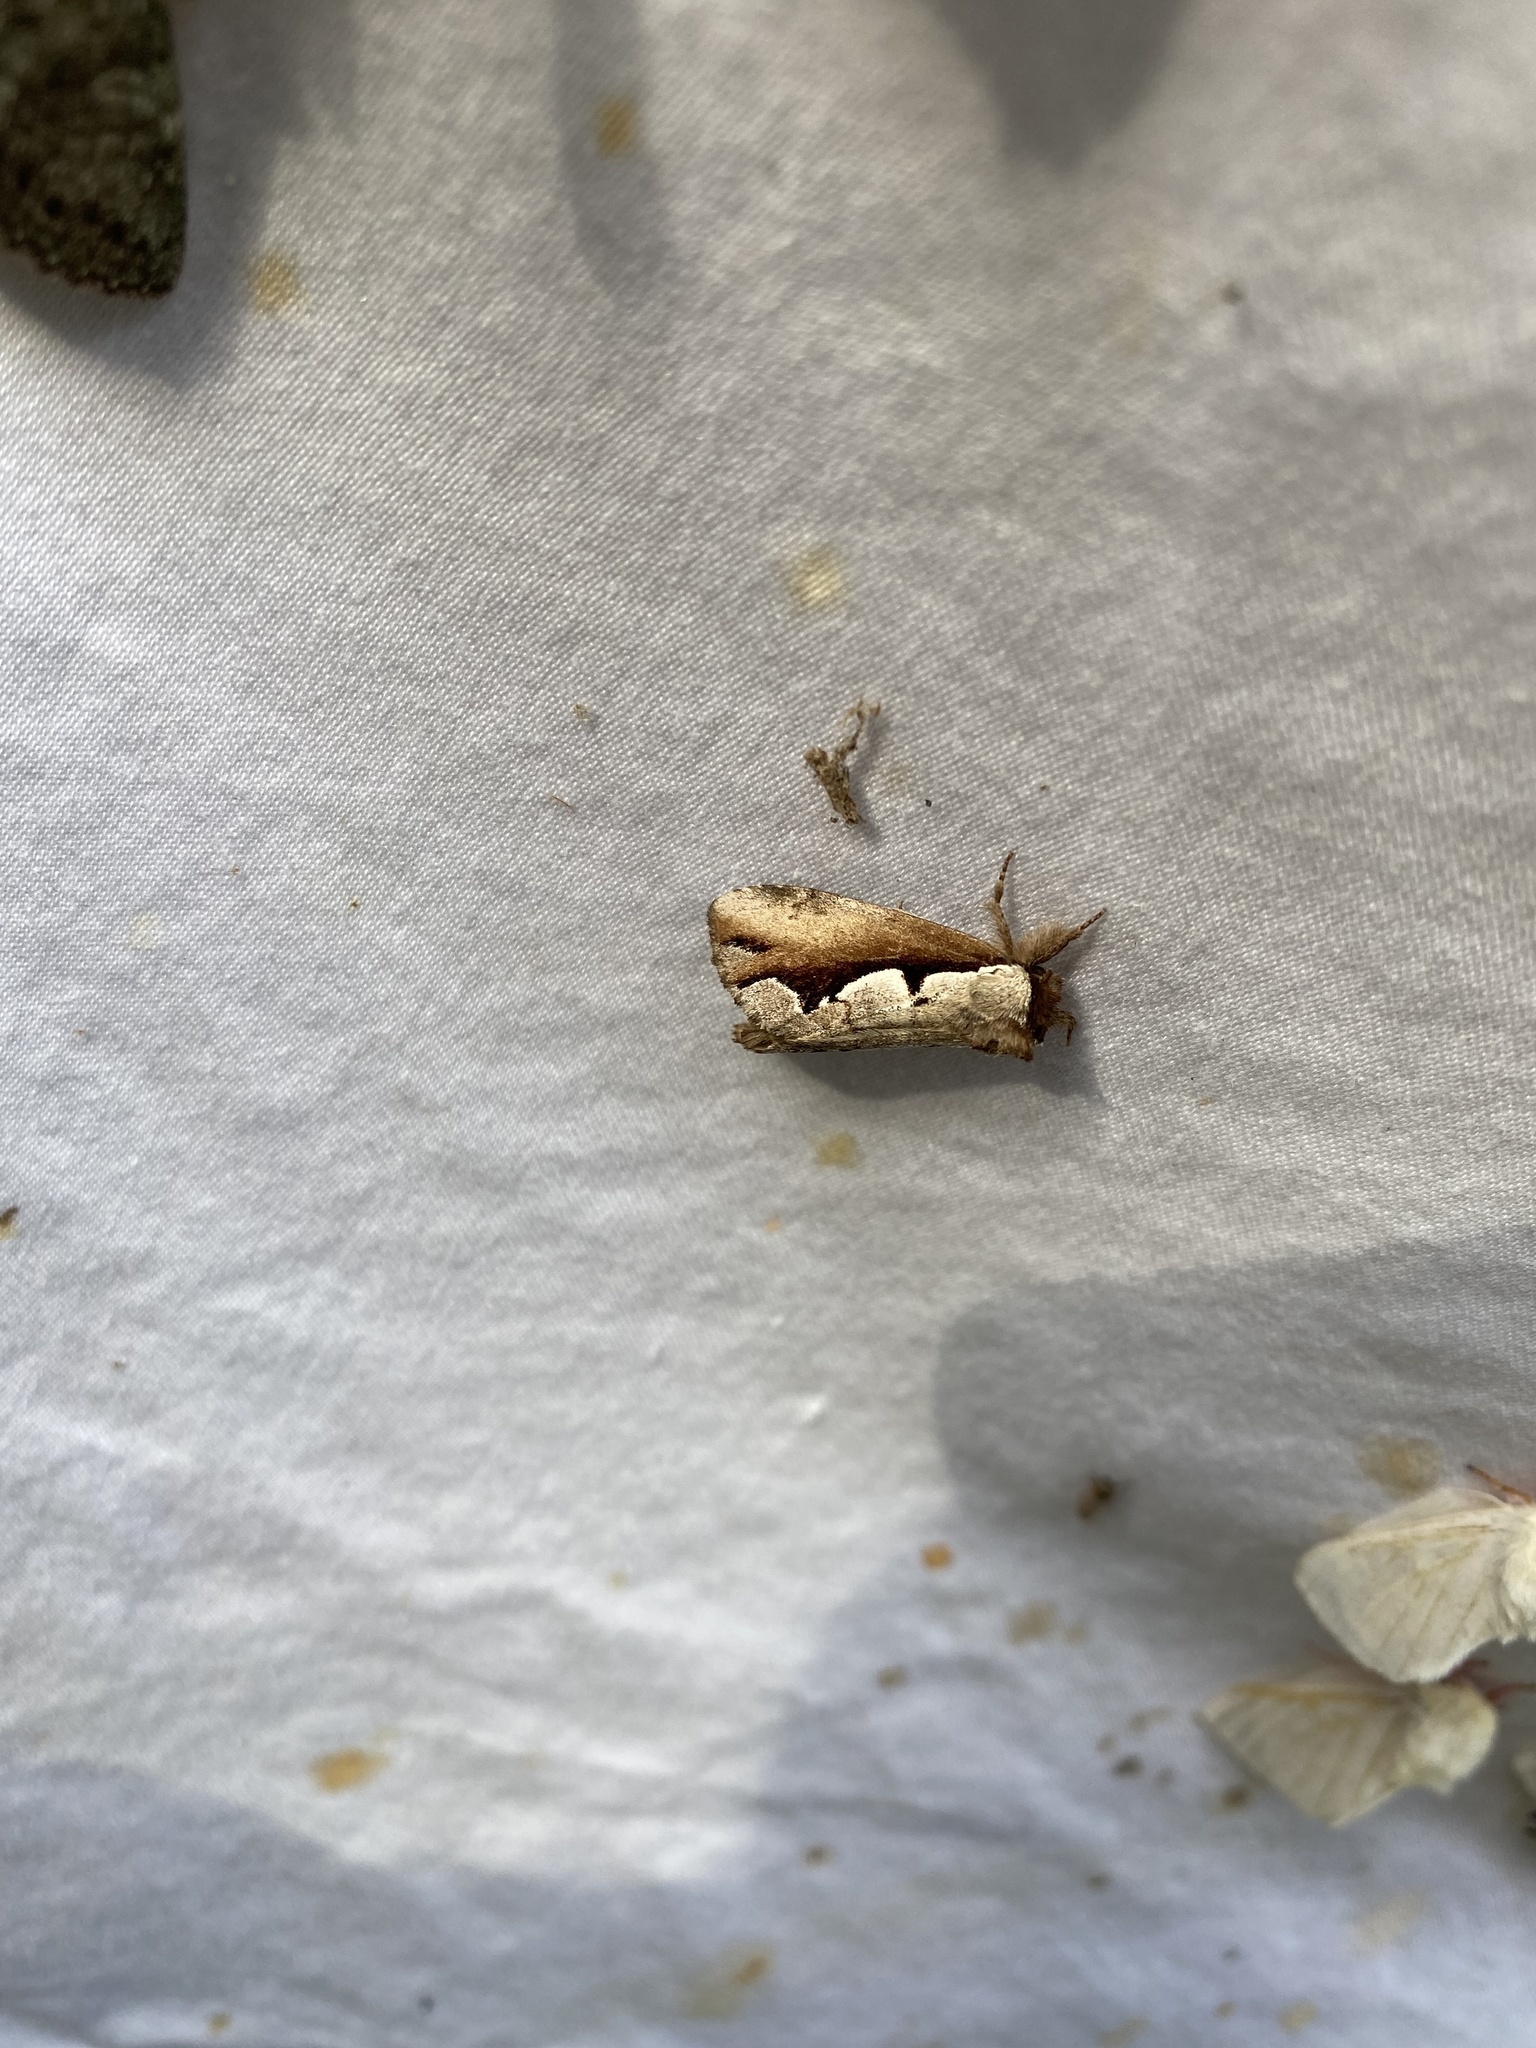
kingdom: Animalia
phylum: Arthropoda
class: Insecta
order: Lepidoptera
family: Notodontidae
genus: Nerice
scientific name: Nerice bidentata
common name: Double-toothed prominent
